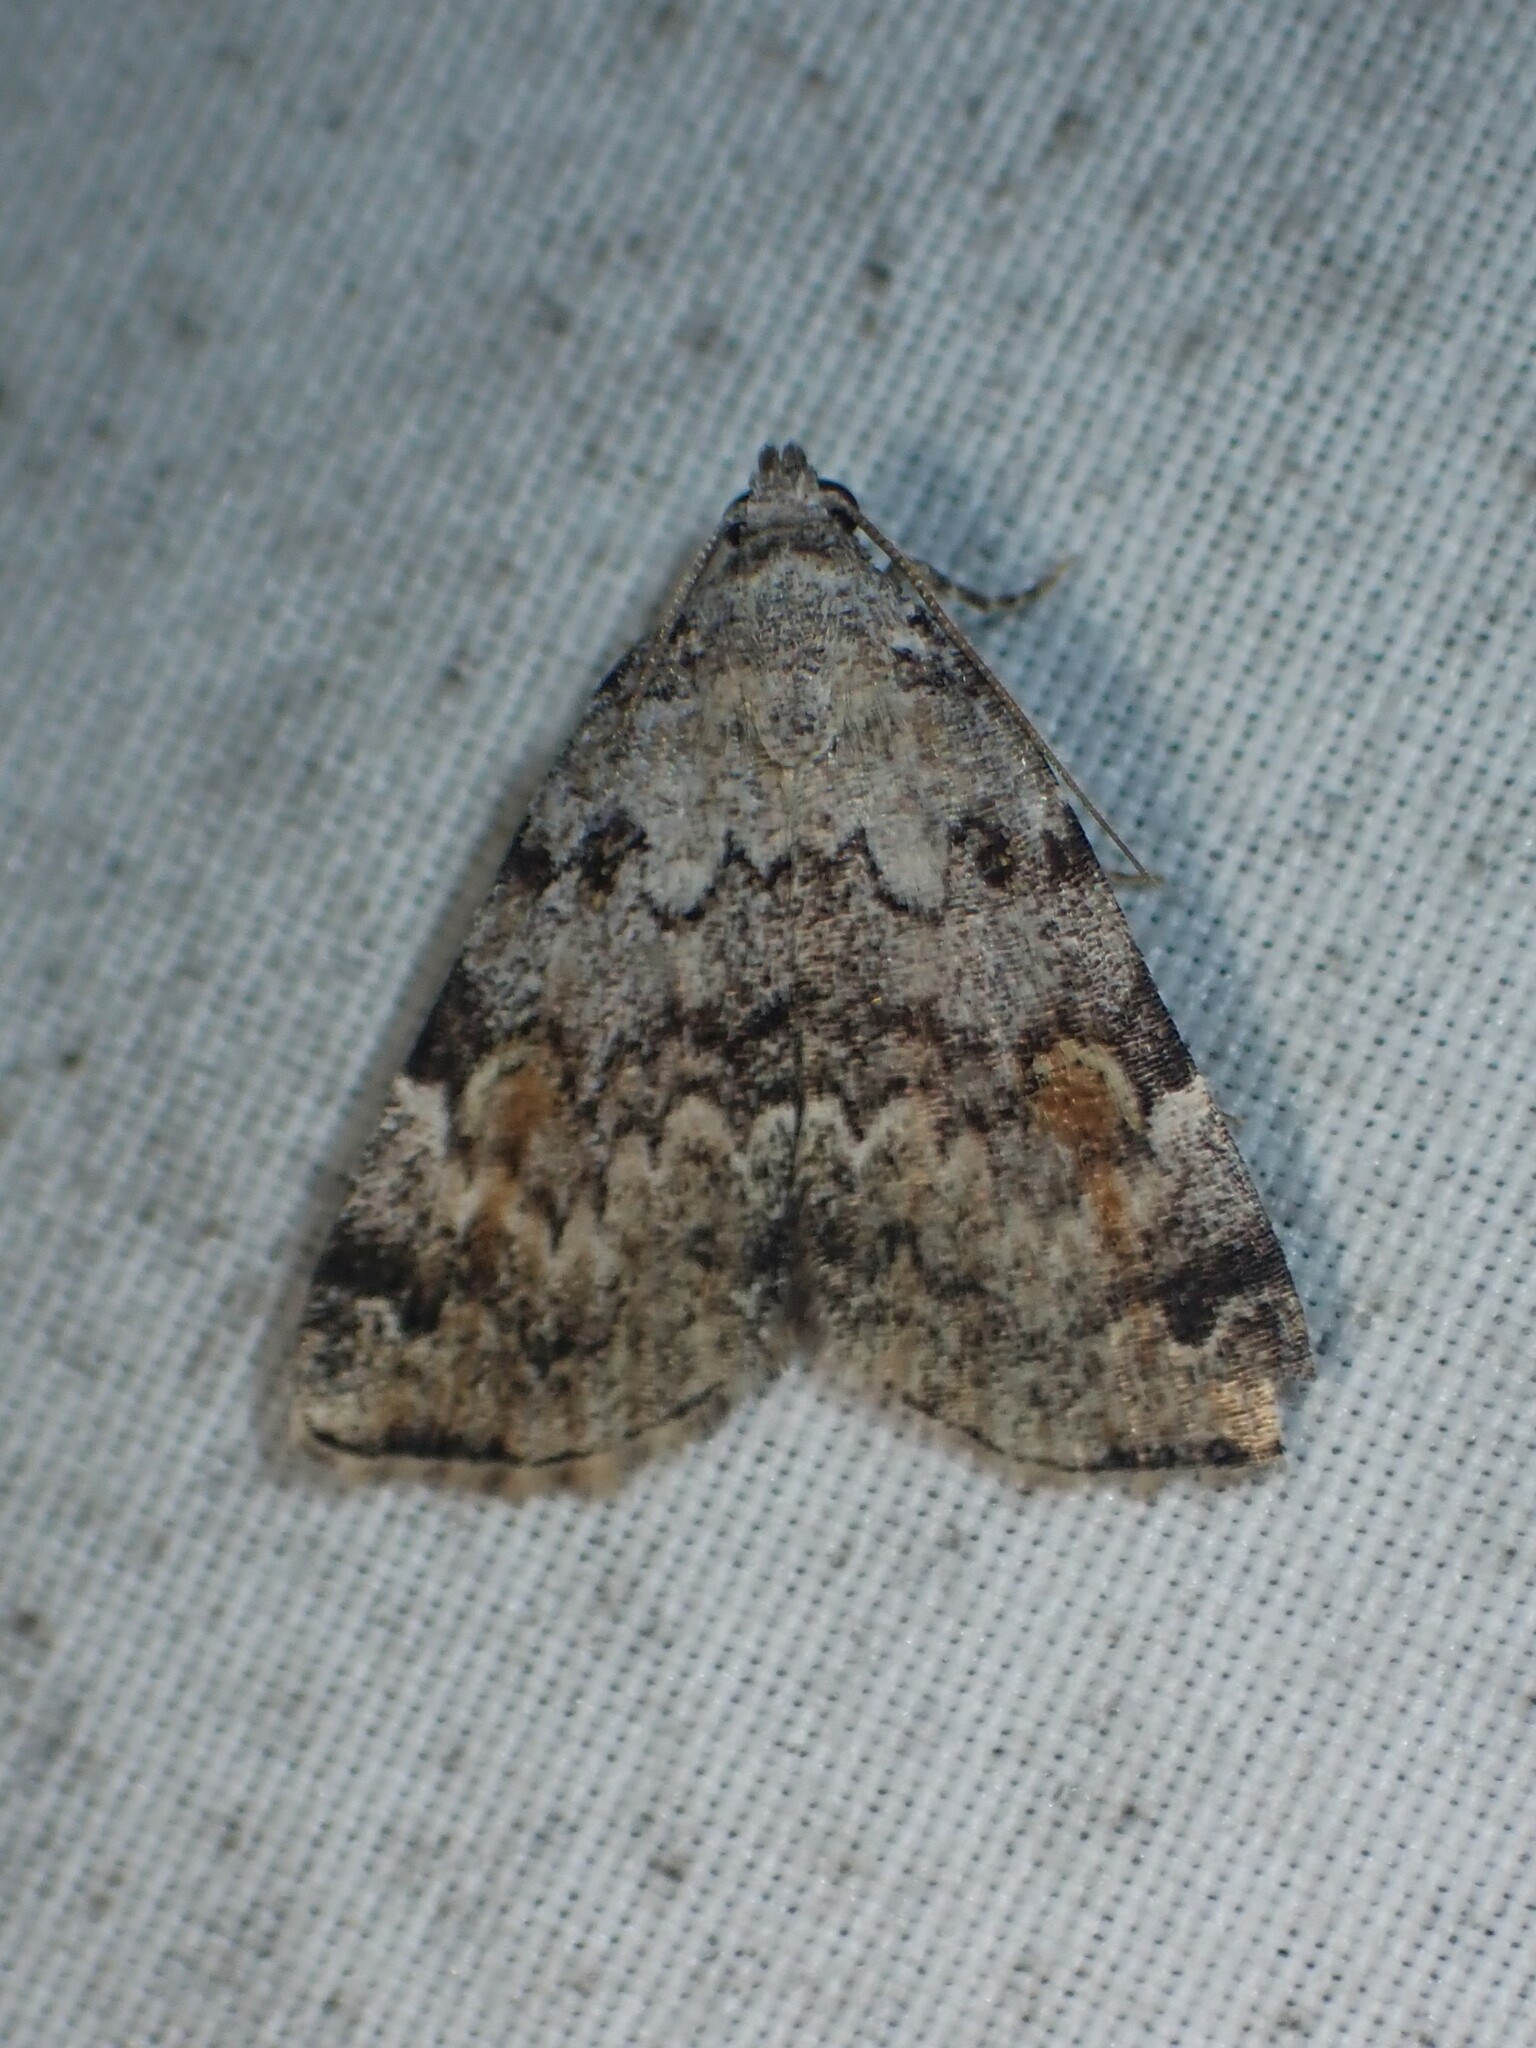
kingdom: Animalia
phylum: Arthropoda
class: Insecta
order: Lepidoptera
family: Erebidae
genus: Idia
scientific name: Idia americalis
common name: American idia moth
